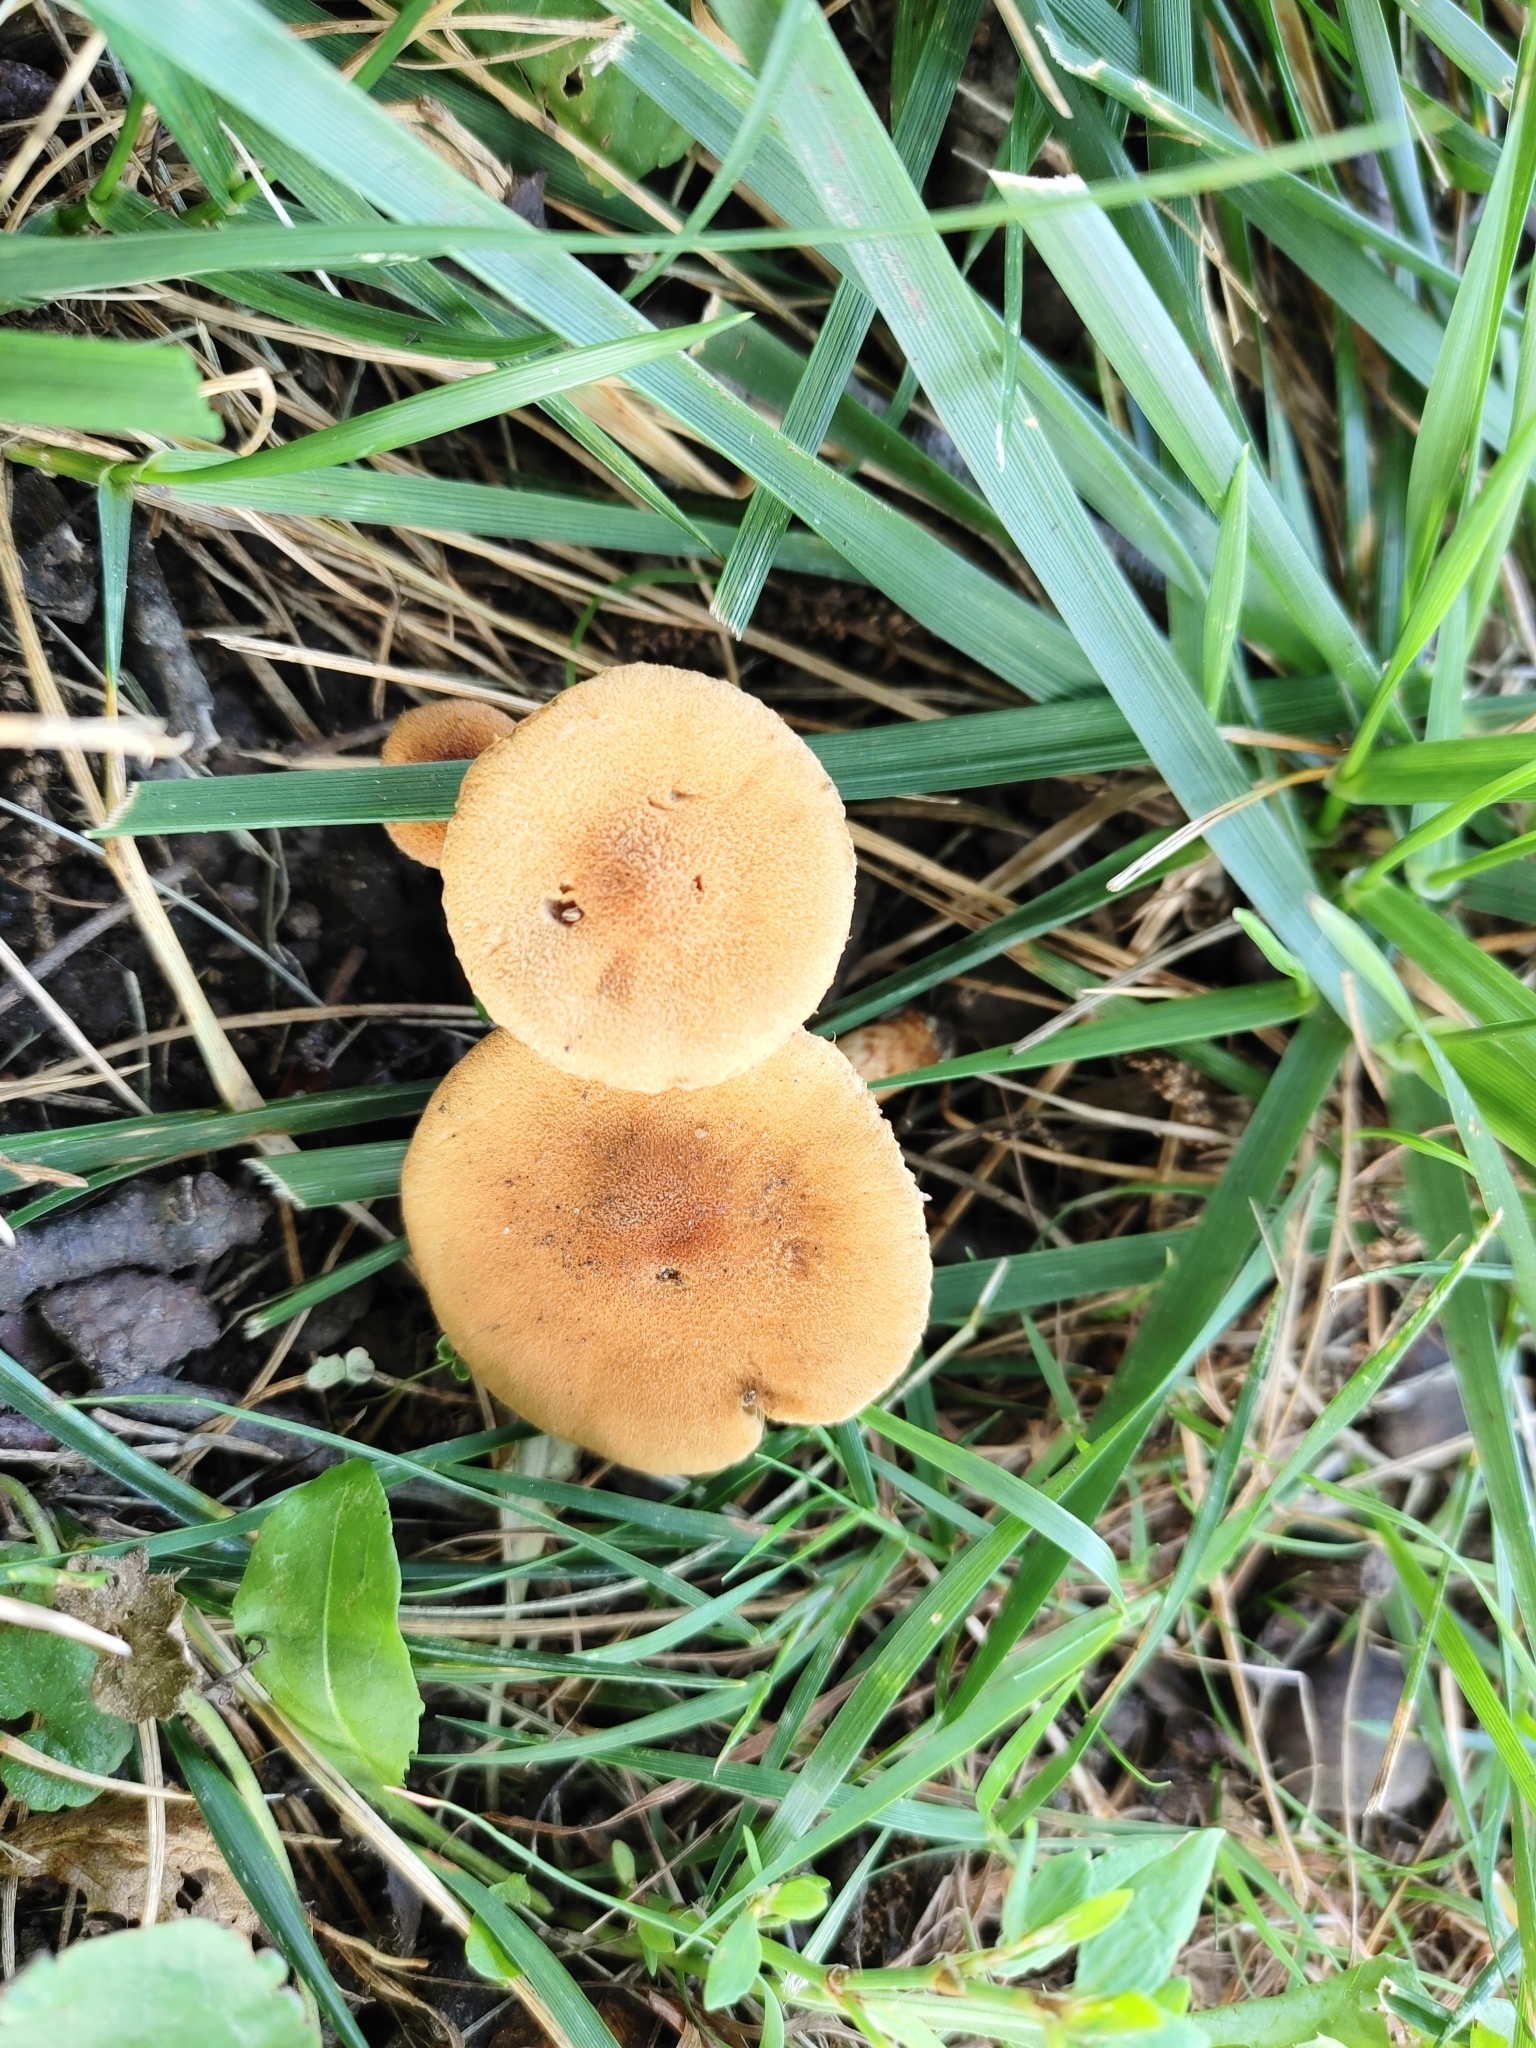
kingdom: Fungi
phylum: Basidiomycota
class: Agaricomycetes
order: Agaricales
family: Inocybaceae
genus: Mallocybe
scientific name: Mallocybe unicolor
